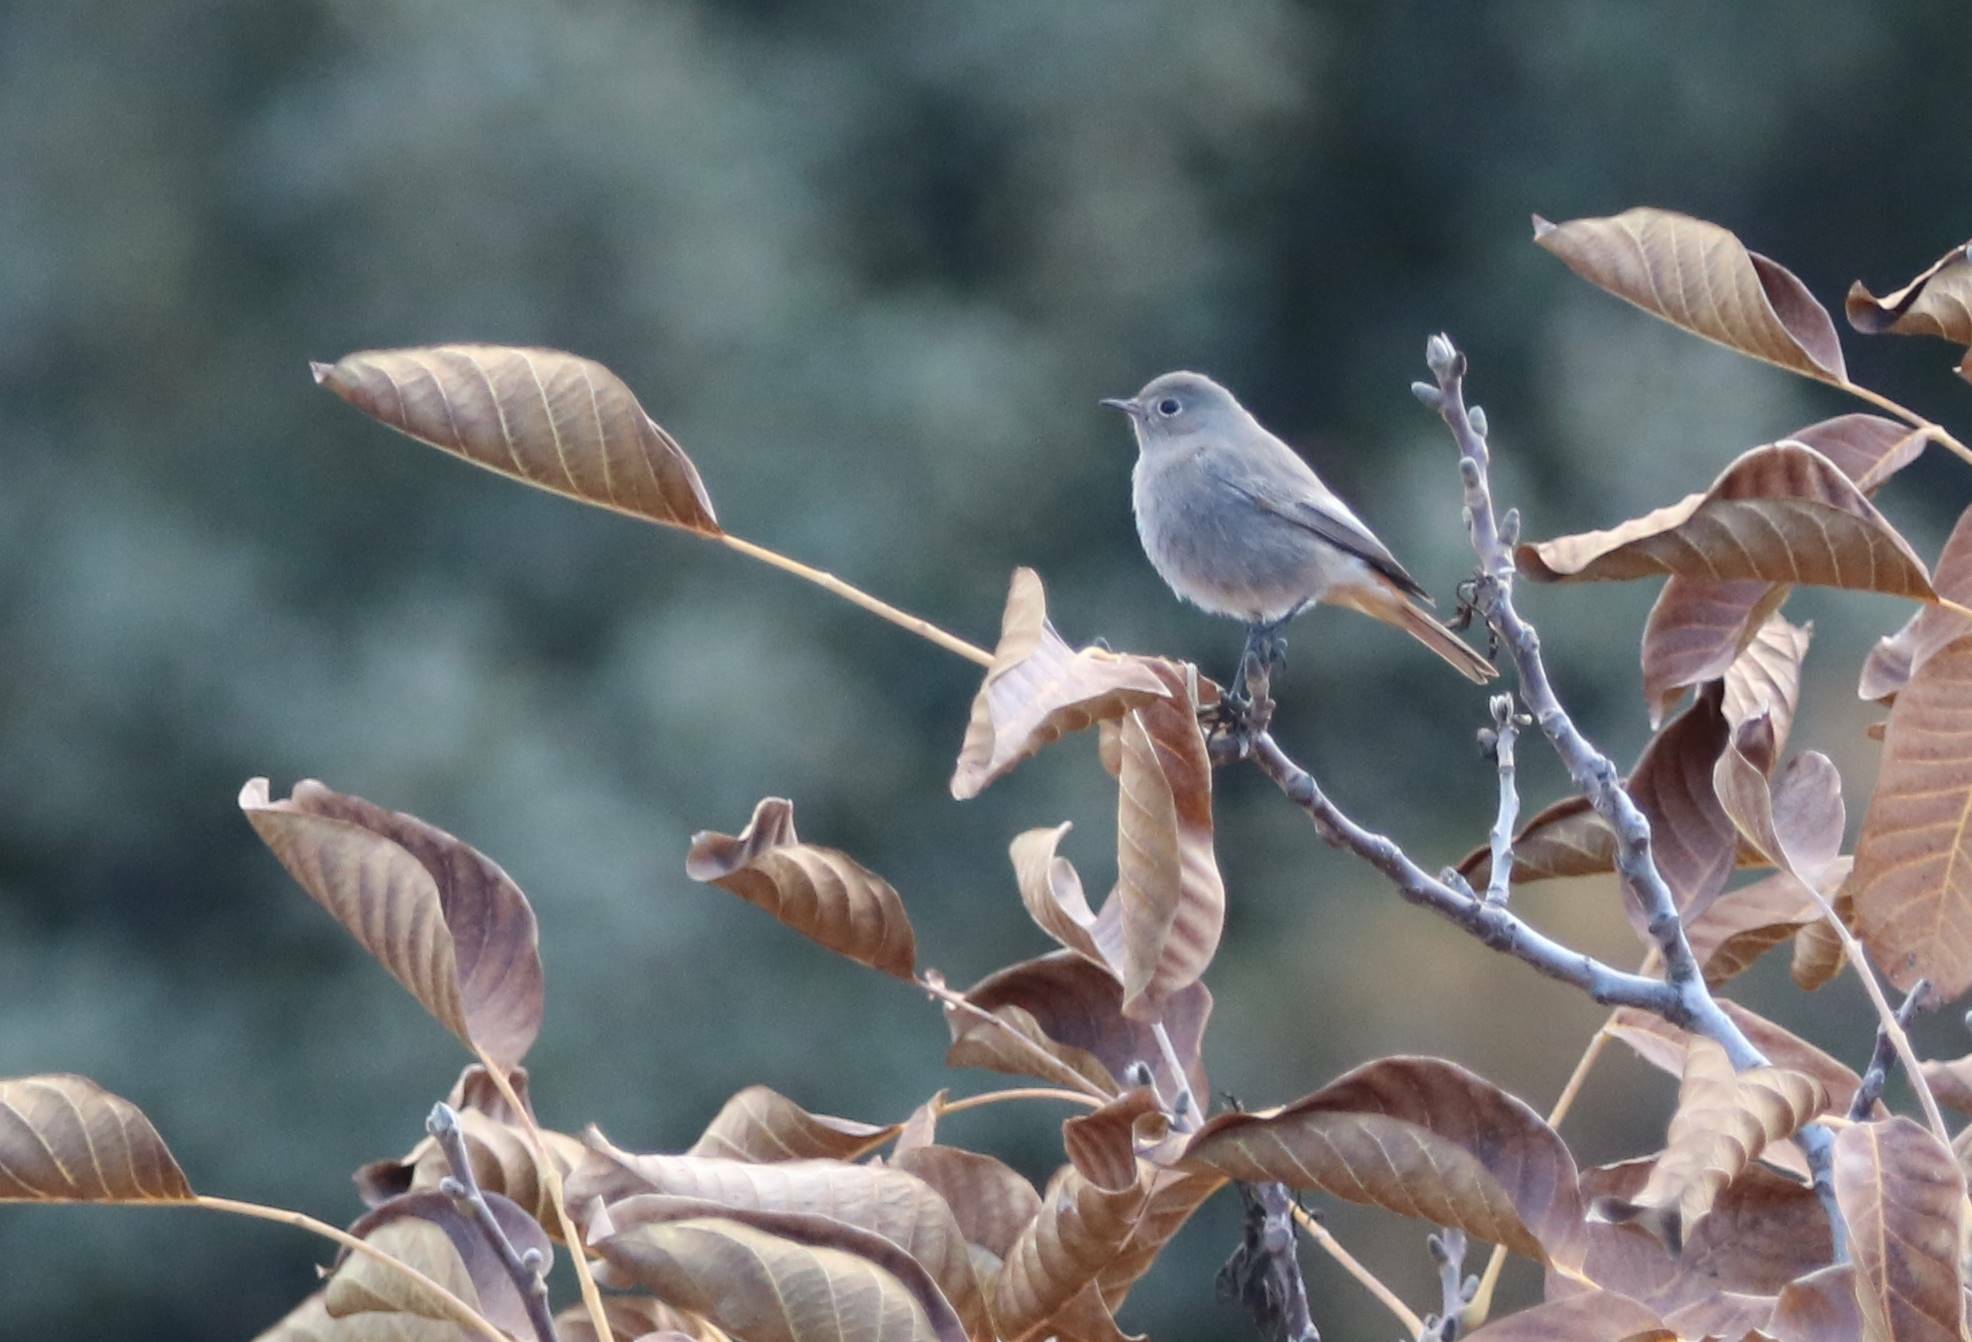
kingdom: Animalia
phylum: Chordata
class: Aves
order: Passeriformes
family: Muscicapidae
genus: Phoenicurus
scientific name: Phoenicurus ochruros
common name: Black redstart
